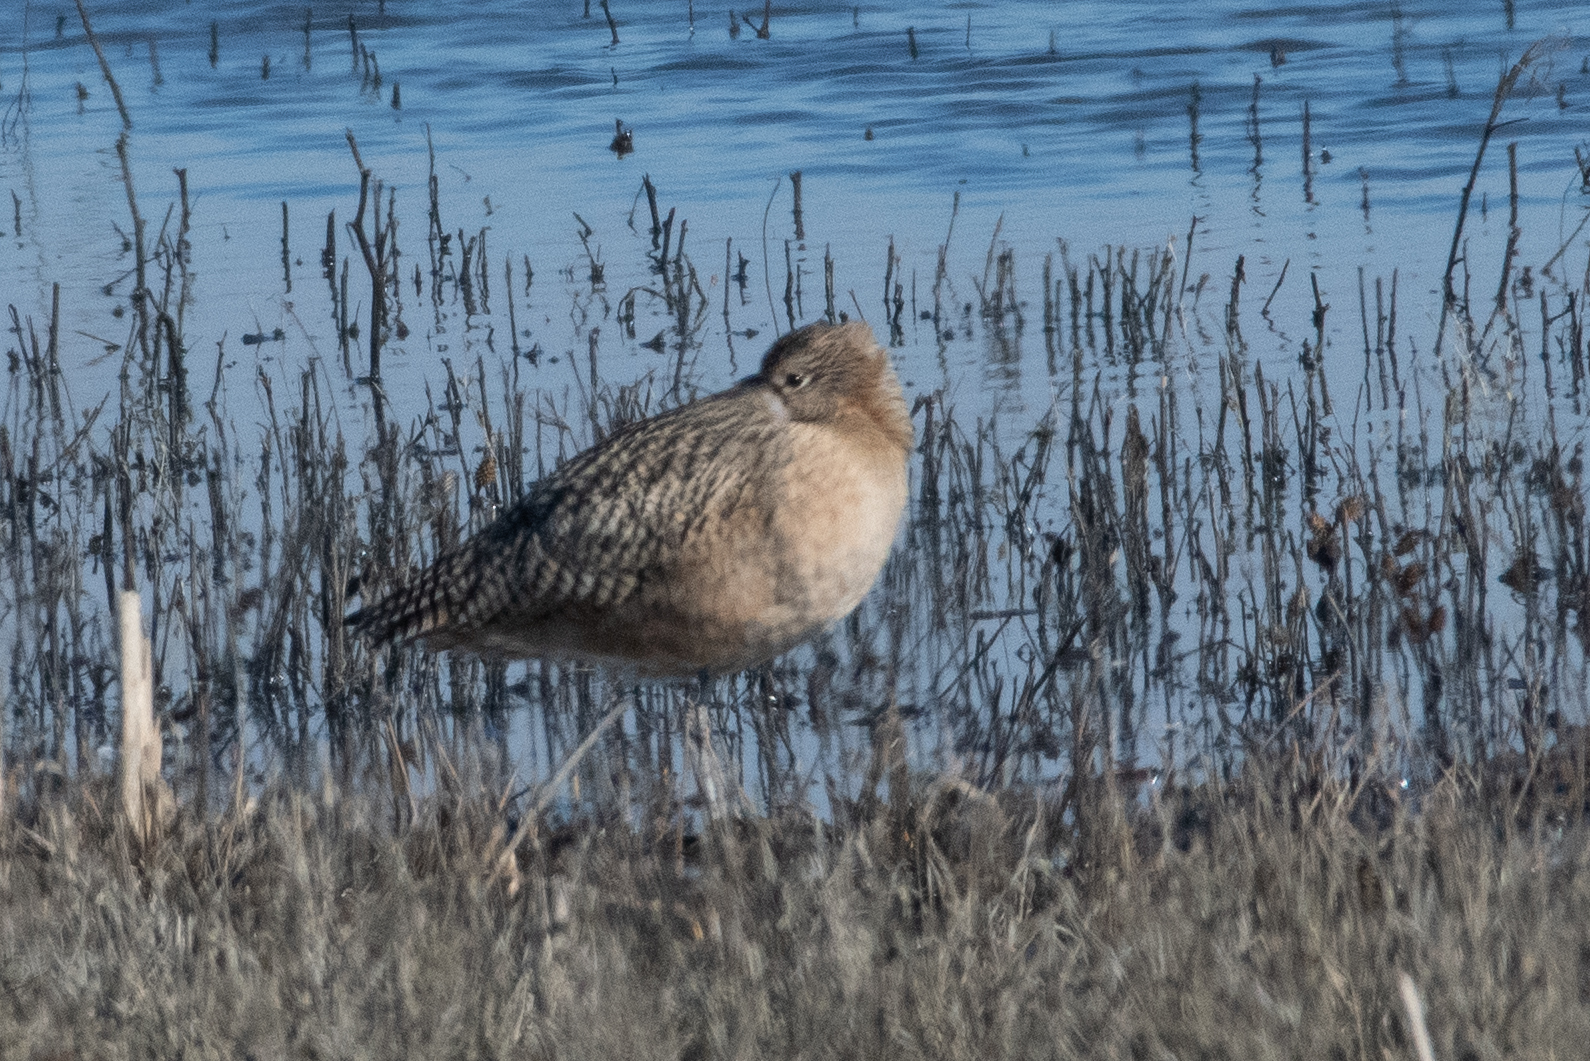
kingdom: Animalia
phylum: Chordata
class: Aves
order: Charadriiformes
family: Scolopacidae
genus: Numenius
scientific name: Numenius americanus
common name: Long-billed curlew
